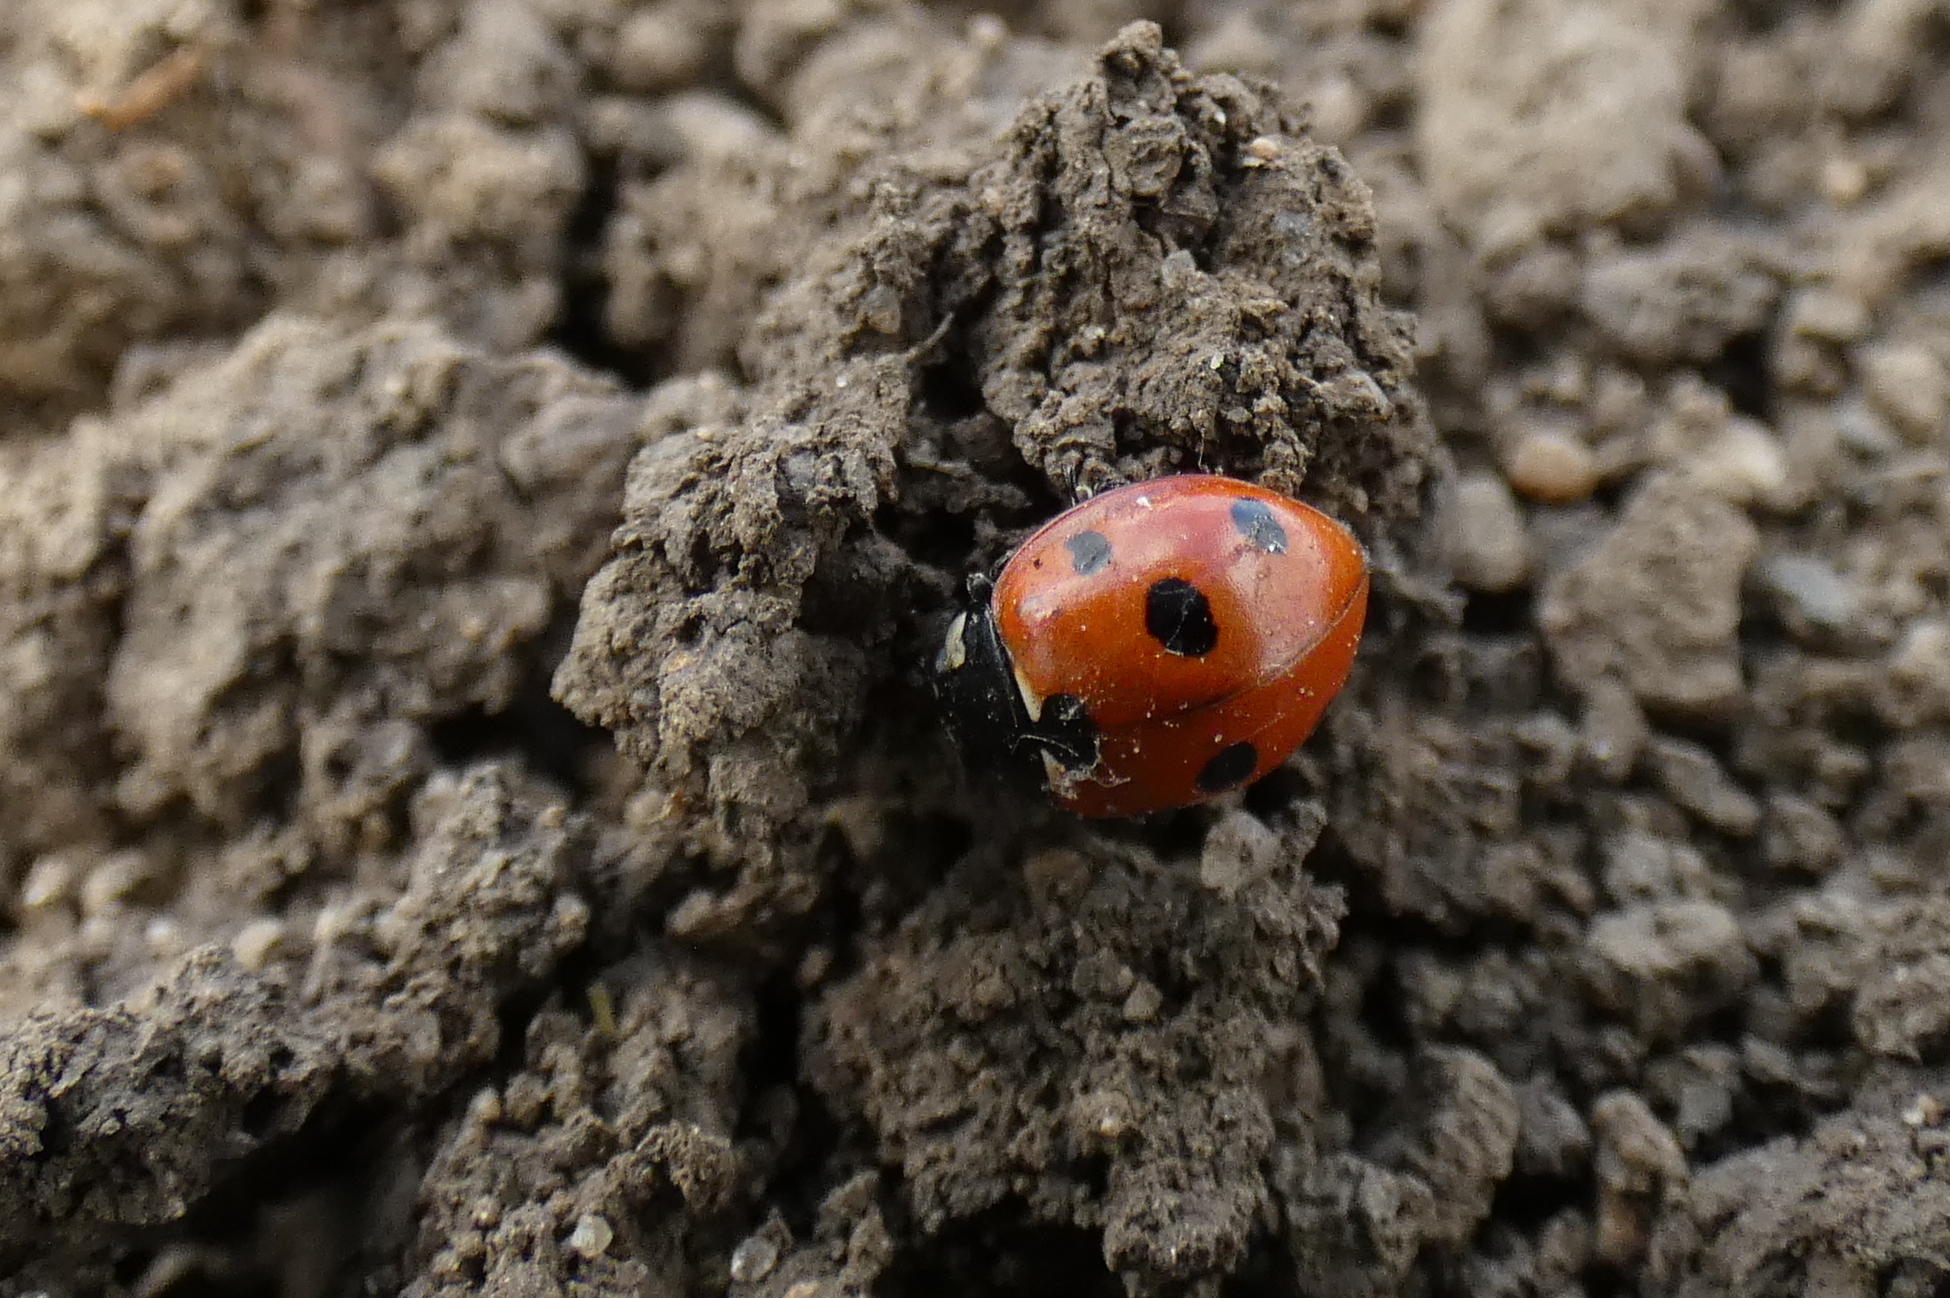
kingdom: Animalia
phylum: Arthropoda
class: Insecta
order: Coleoptera
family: Coccinellidae
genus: Coccinella
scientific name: Coccinella septempunctata
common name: Sevenspotted lady beetle
